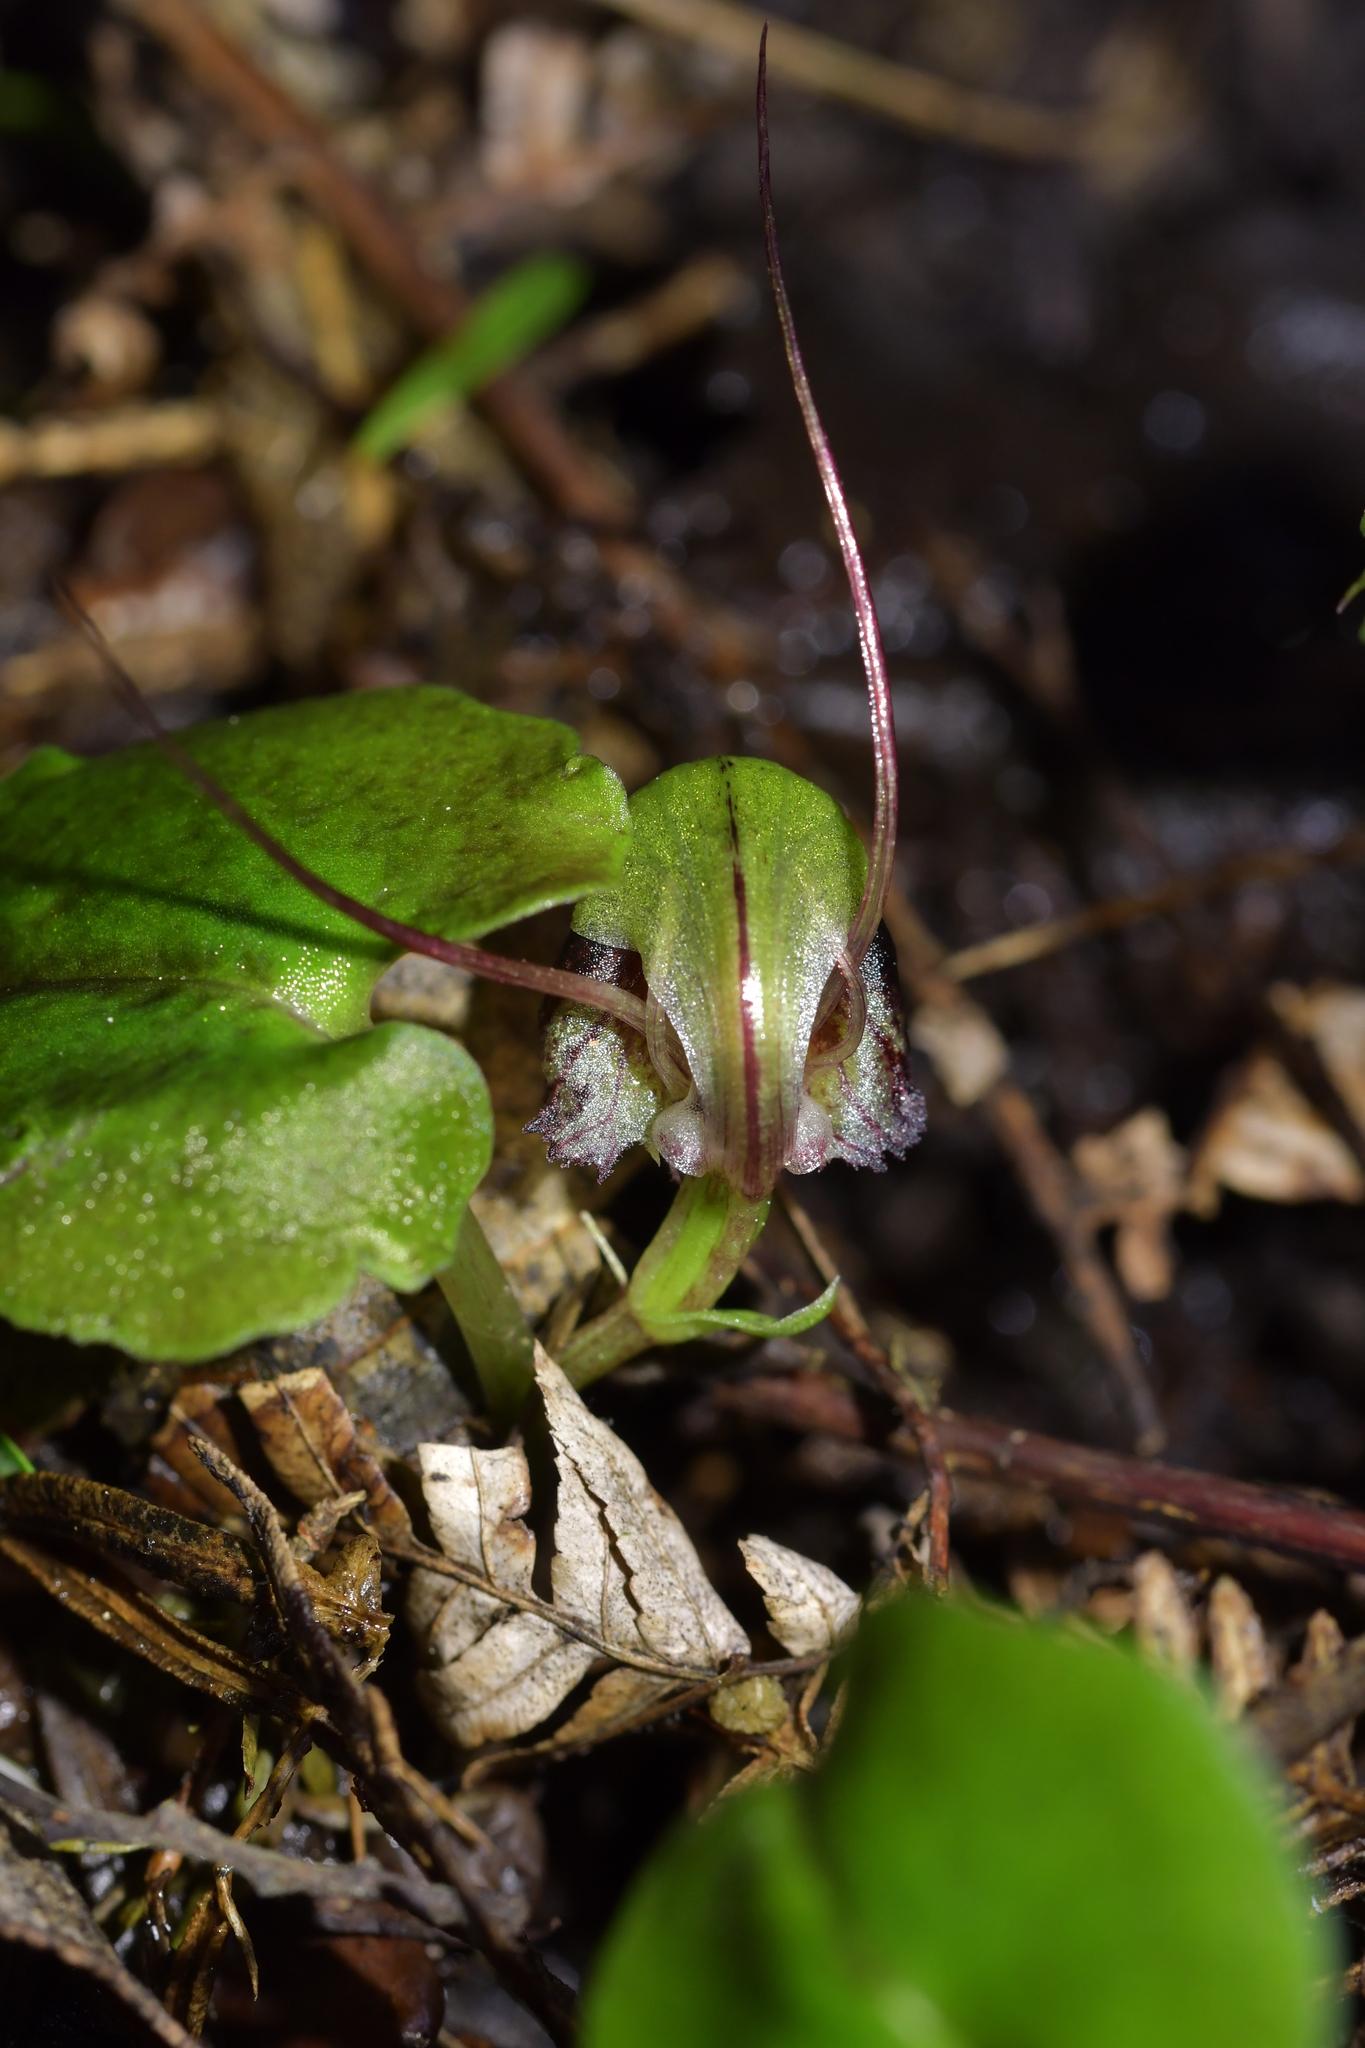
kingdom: Plantae
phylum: Tracheophyta
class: Liliopsida
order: Asparagales
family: Orchidaceae
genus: Corybas
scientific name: Corybas vitreus
